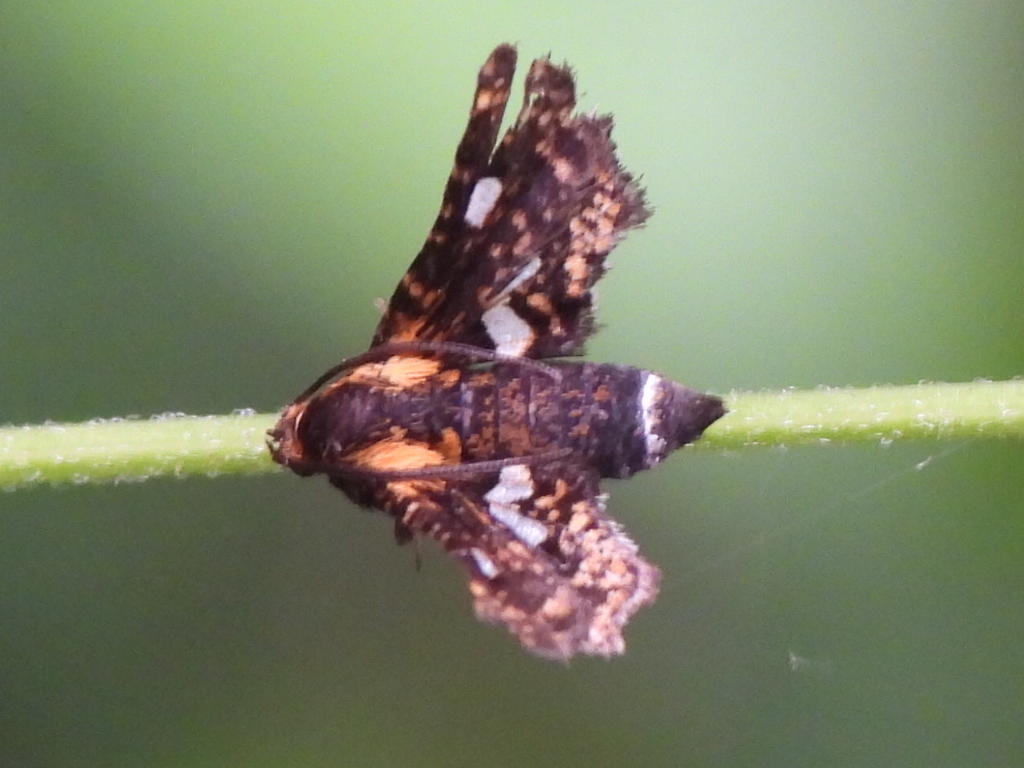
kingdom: Animalia
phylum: Arthropoda
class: Insecta
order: Lepidoptera
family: Thyrididae
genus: Thyris
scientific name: Thyris maculata
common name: Spotted thyris moth
